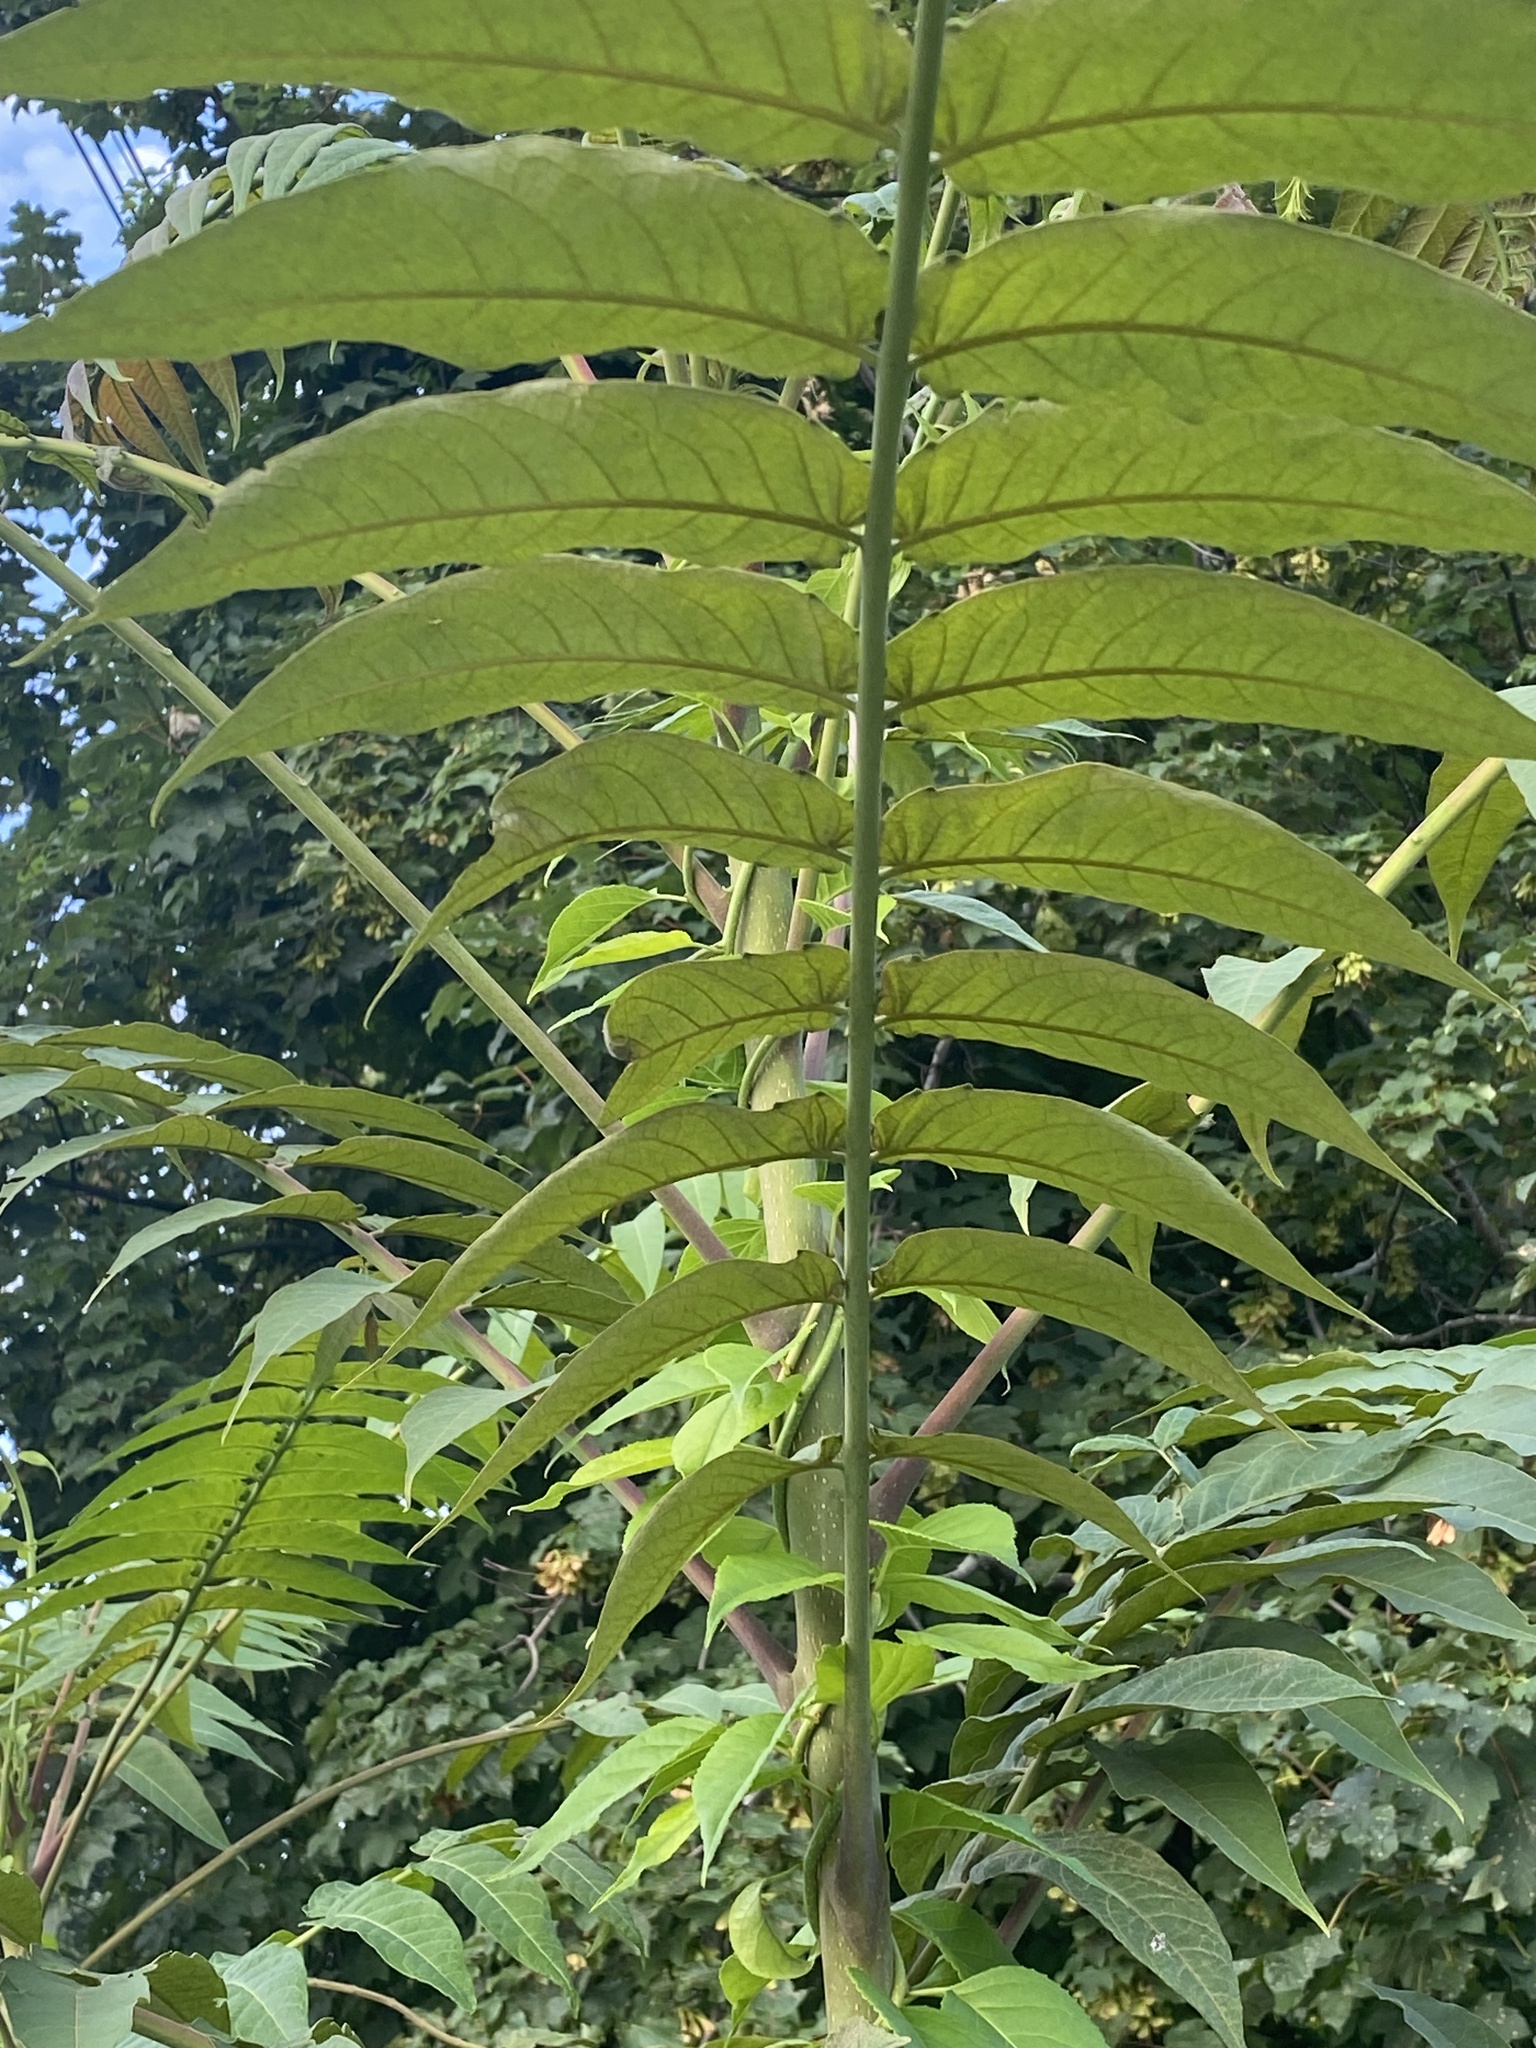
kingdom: Plantae
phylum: Tracheophyta
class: Magnoliopsida
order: Sapindales
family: Simaroubaceae
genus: Ailanthus
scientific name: Ailanthus altissima
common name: Tree-of-heaven
